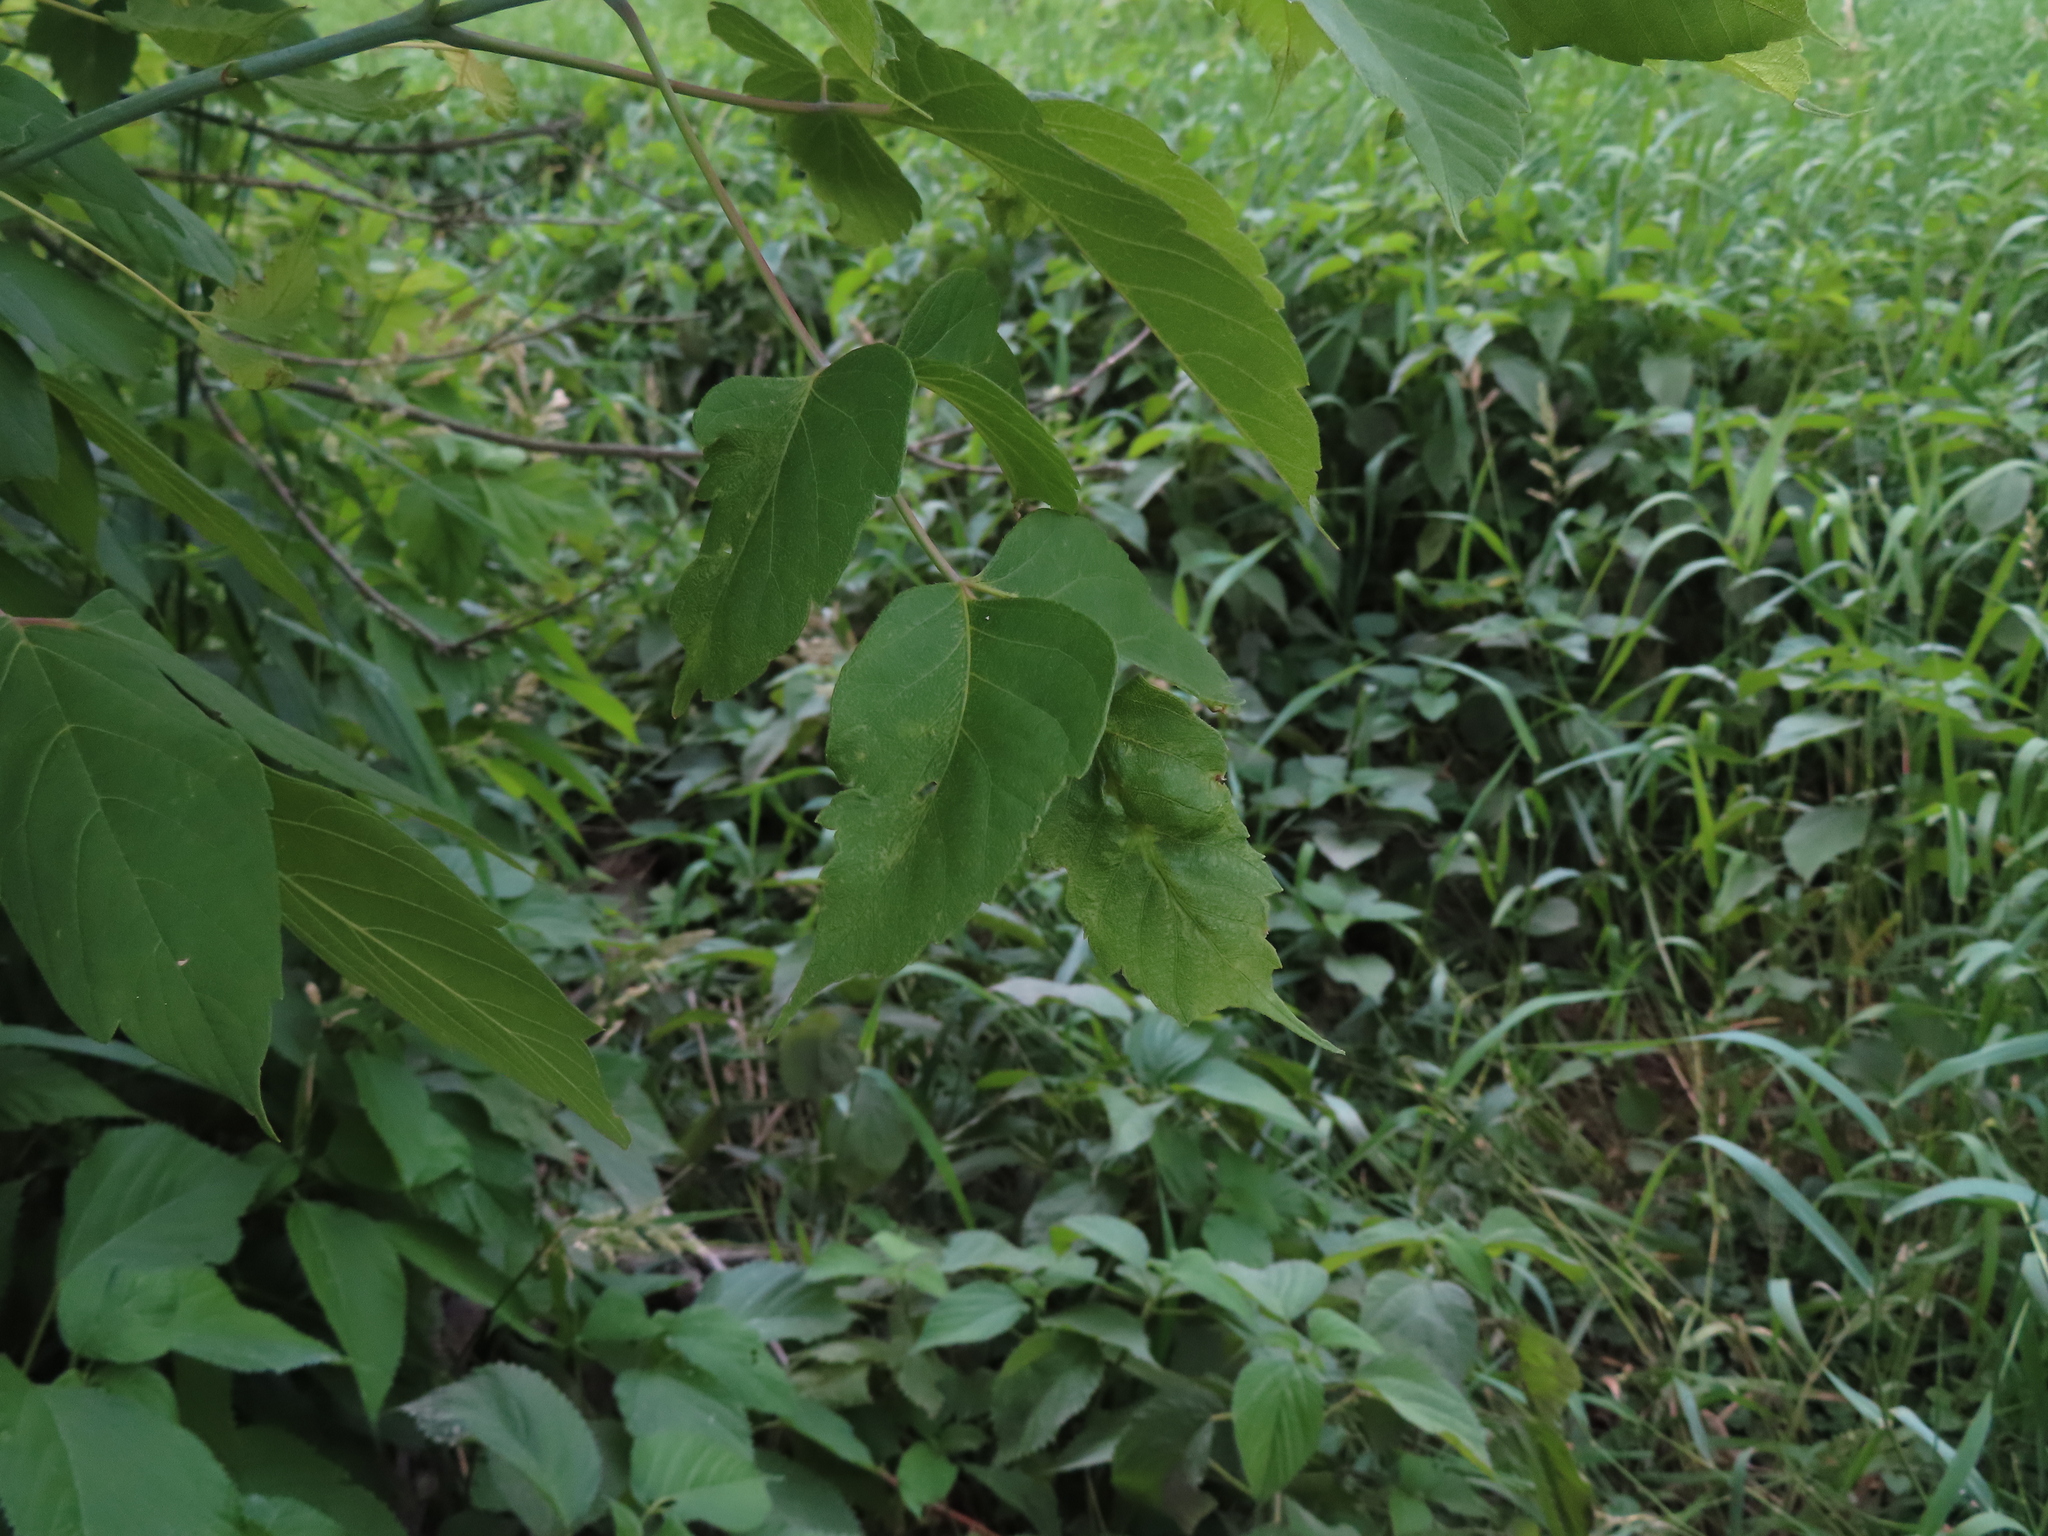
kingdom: Plantae
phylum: Tracheophyta
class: Magnoliopsida
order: Sapindales
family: Sapindaceae
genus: Acer
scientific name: Acer negundo
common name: Ashleaf maple
